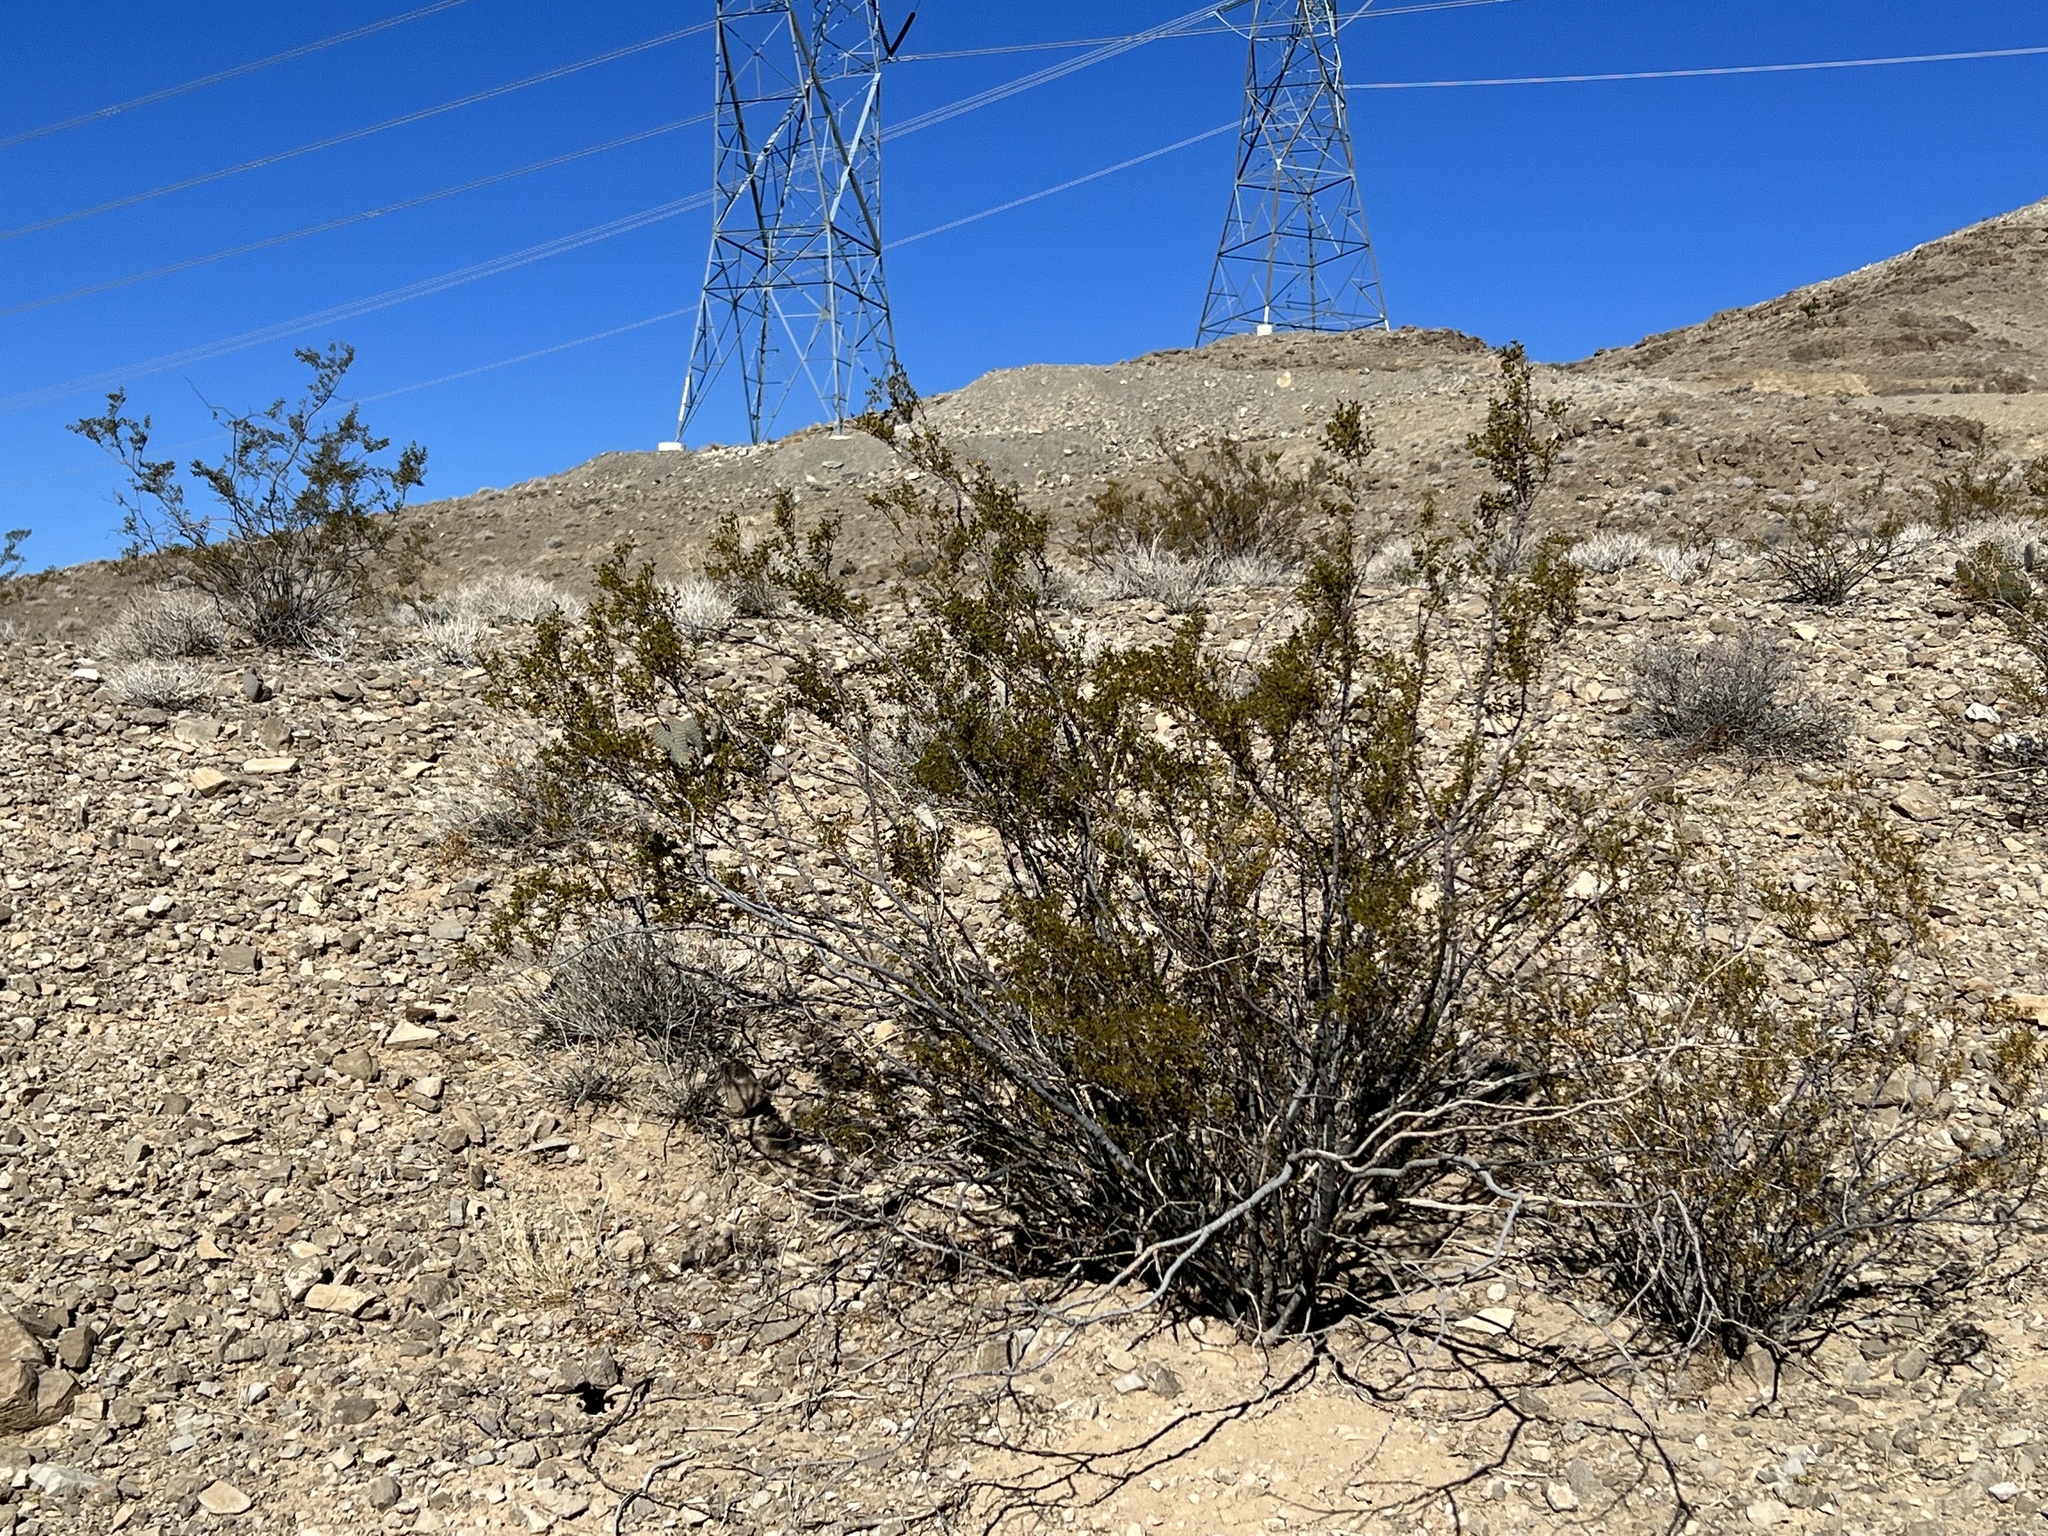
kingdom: Plantae
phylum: Tracheophyta
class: Magnoliopsida
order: Zygophyllales
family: Zygophyllaceae
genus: Larrea
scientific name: Larrea tridentata
